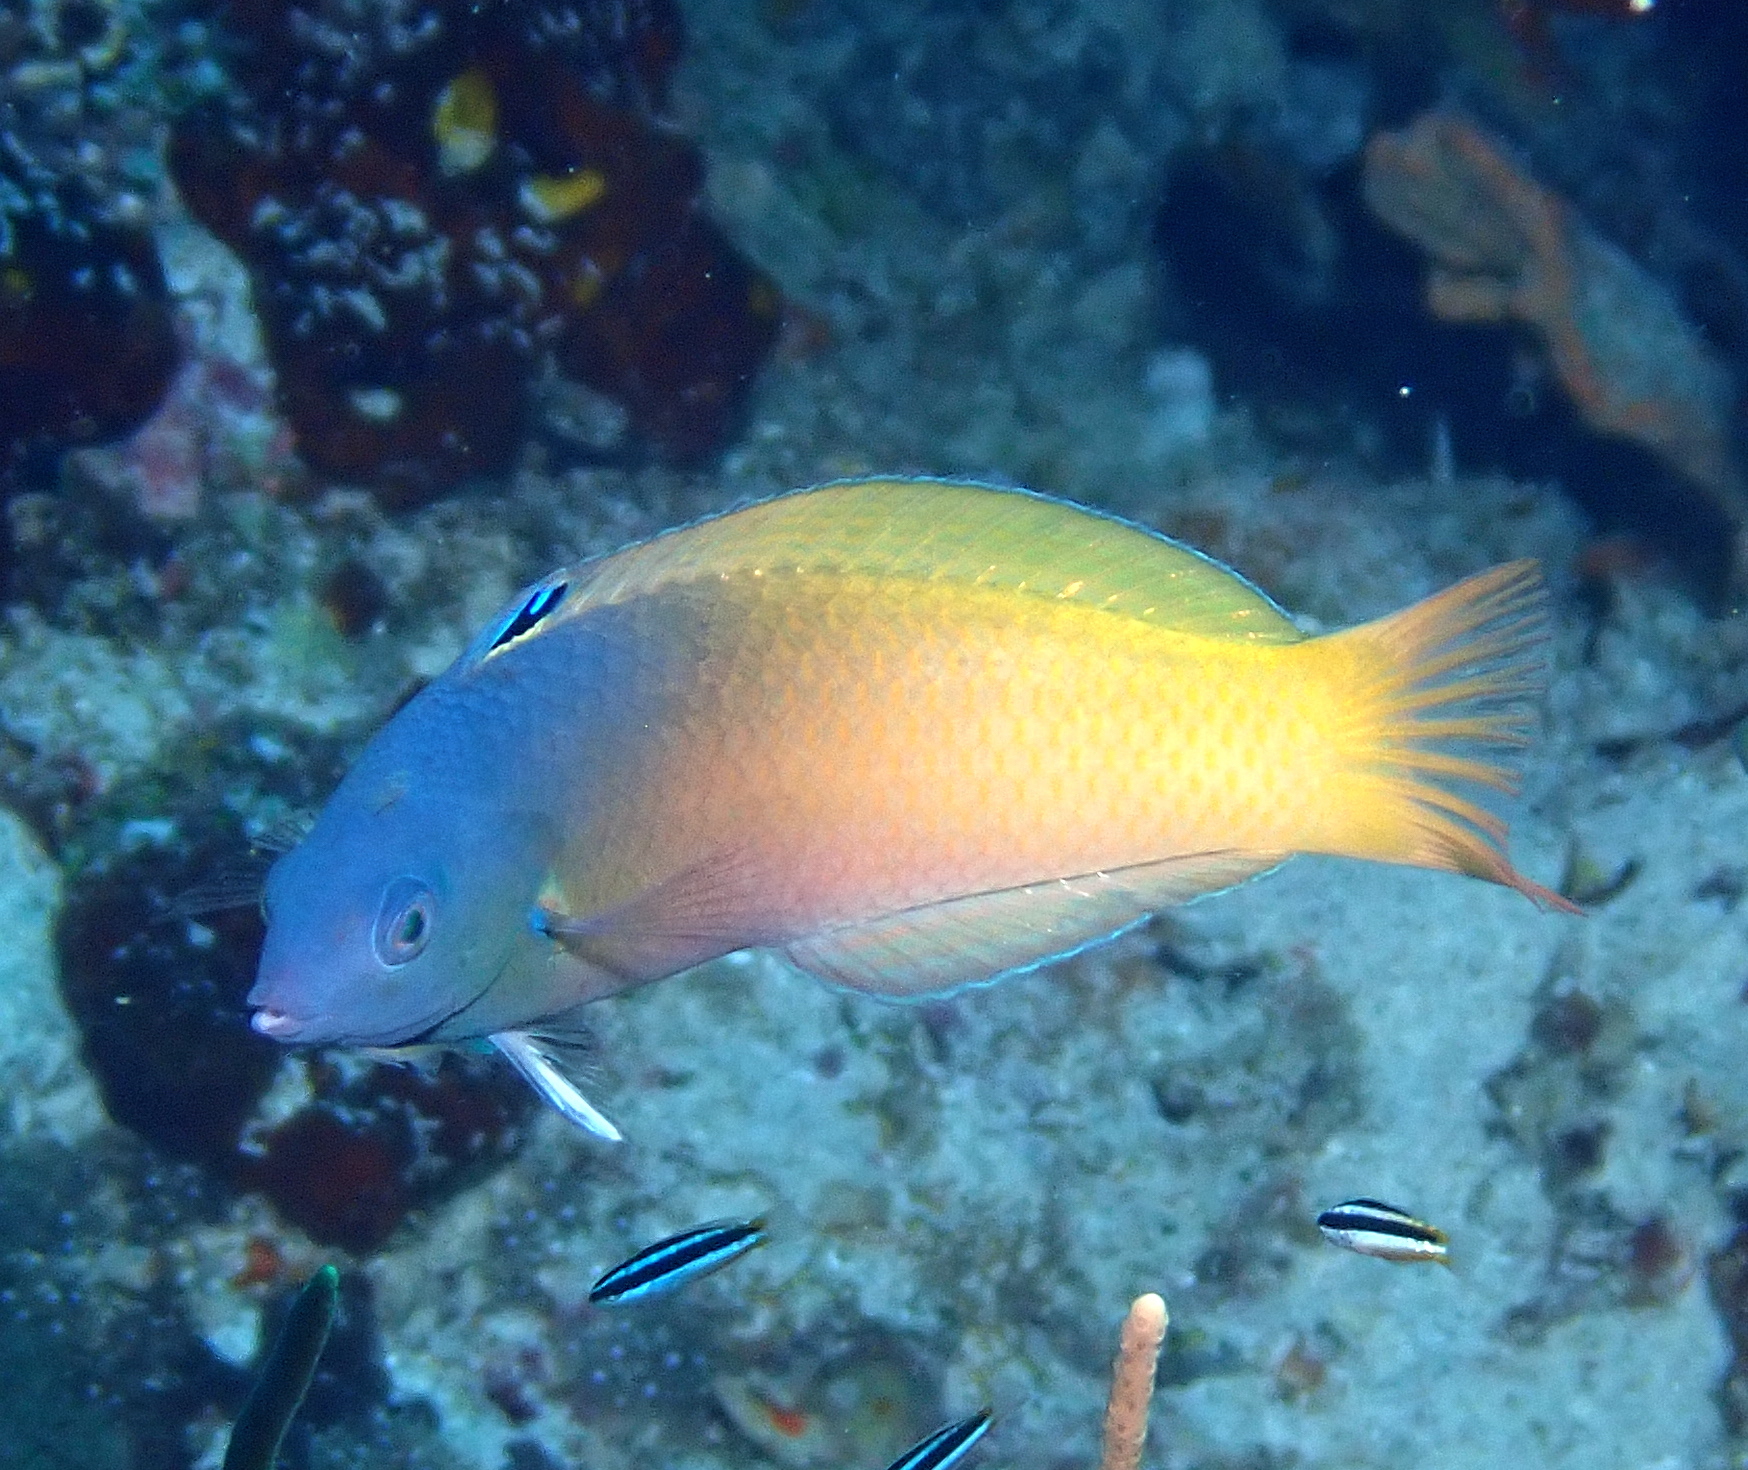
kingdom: Animalia
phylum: Chordata
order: Perciformes
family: Labridae
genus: Halichoeres
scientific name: Halichoeres prosopeion
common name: Half-grey wrasse
